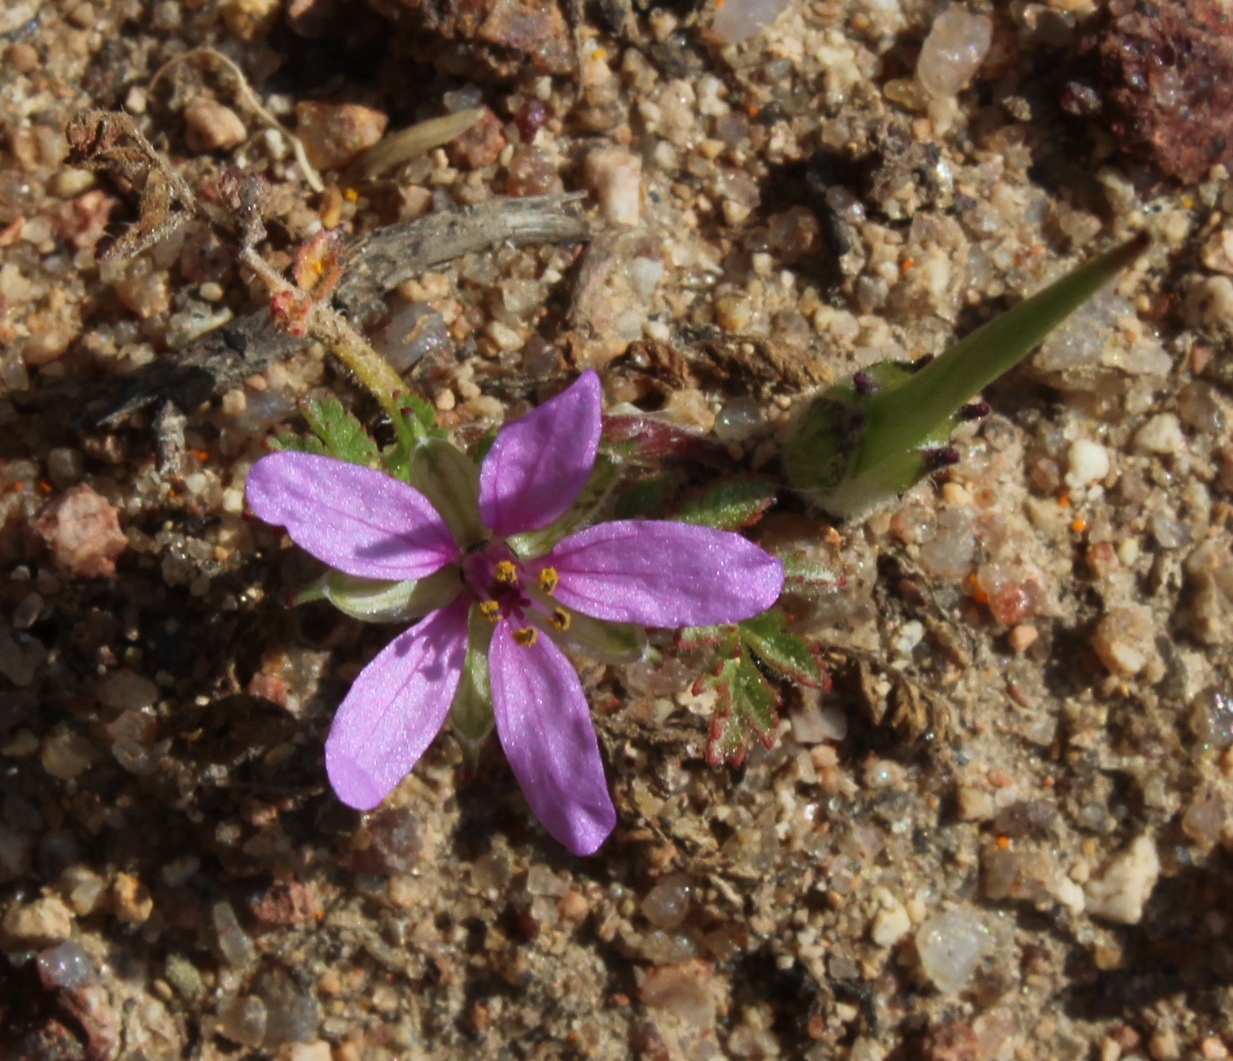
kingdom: Plantae
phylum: Tracheophyta
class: Magnoliopsida
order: Geraniales
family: Geraniaceae
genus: Erodium
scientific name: Erodium cicutarium
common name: Common stork's-bill
